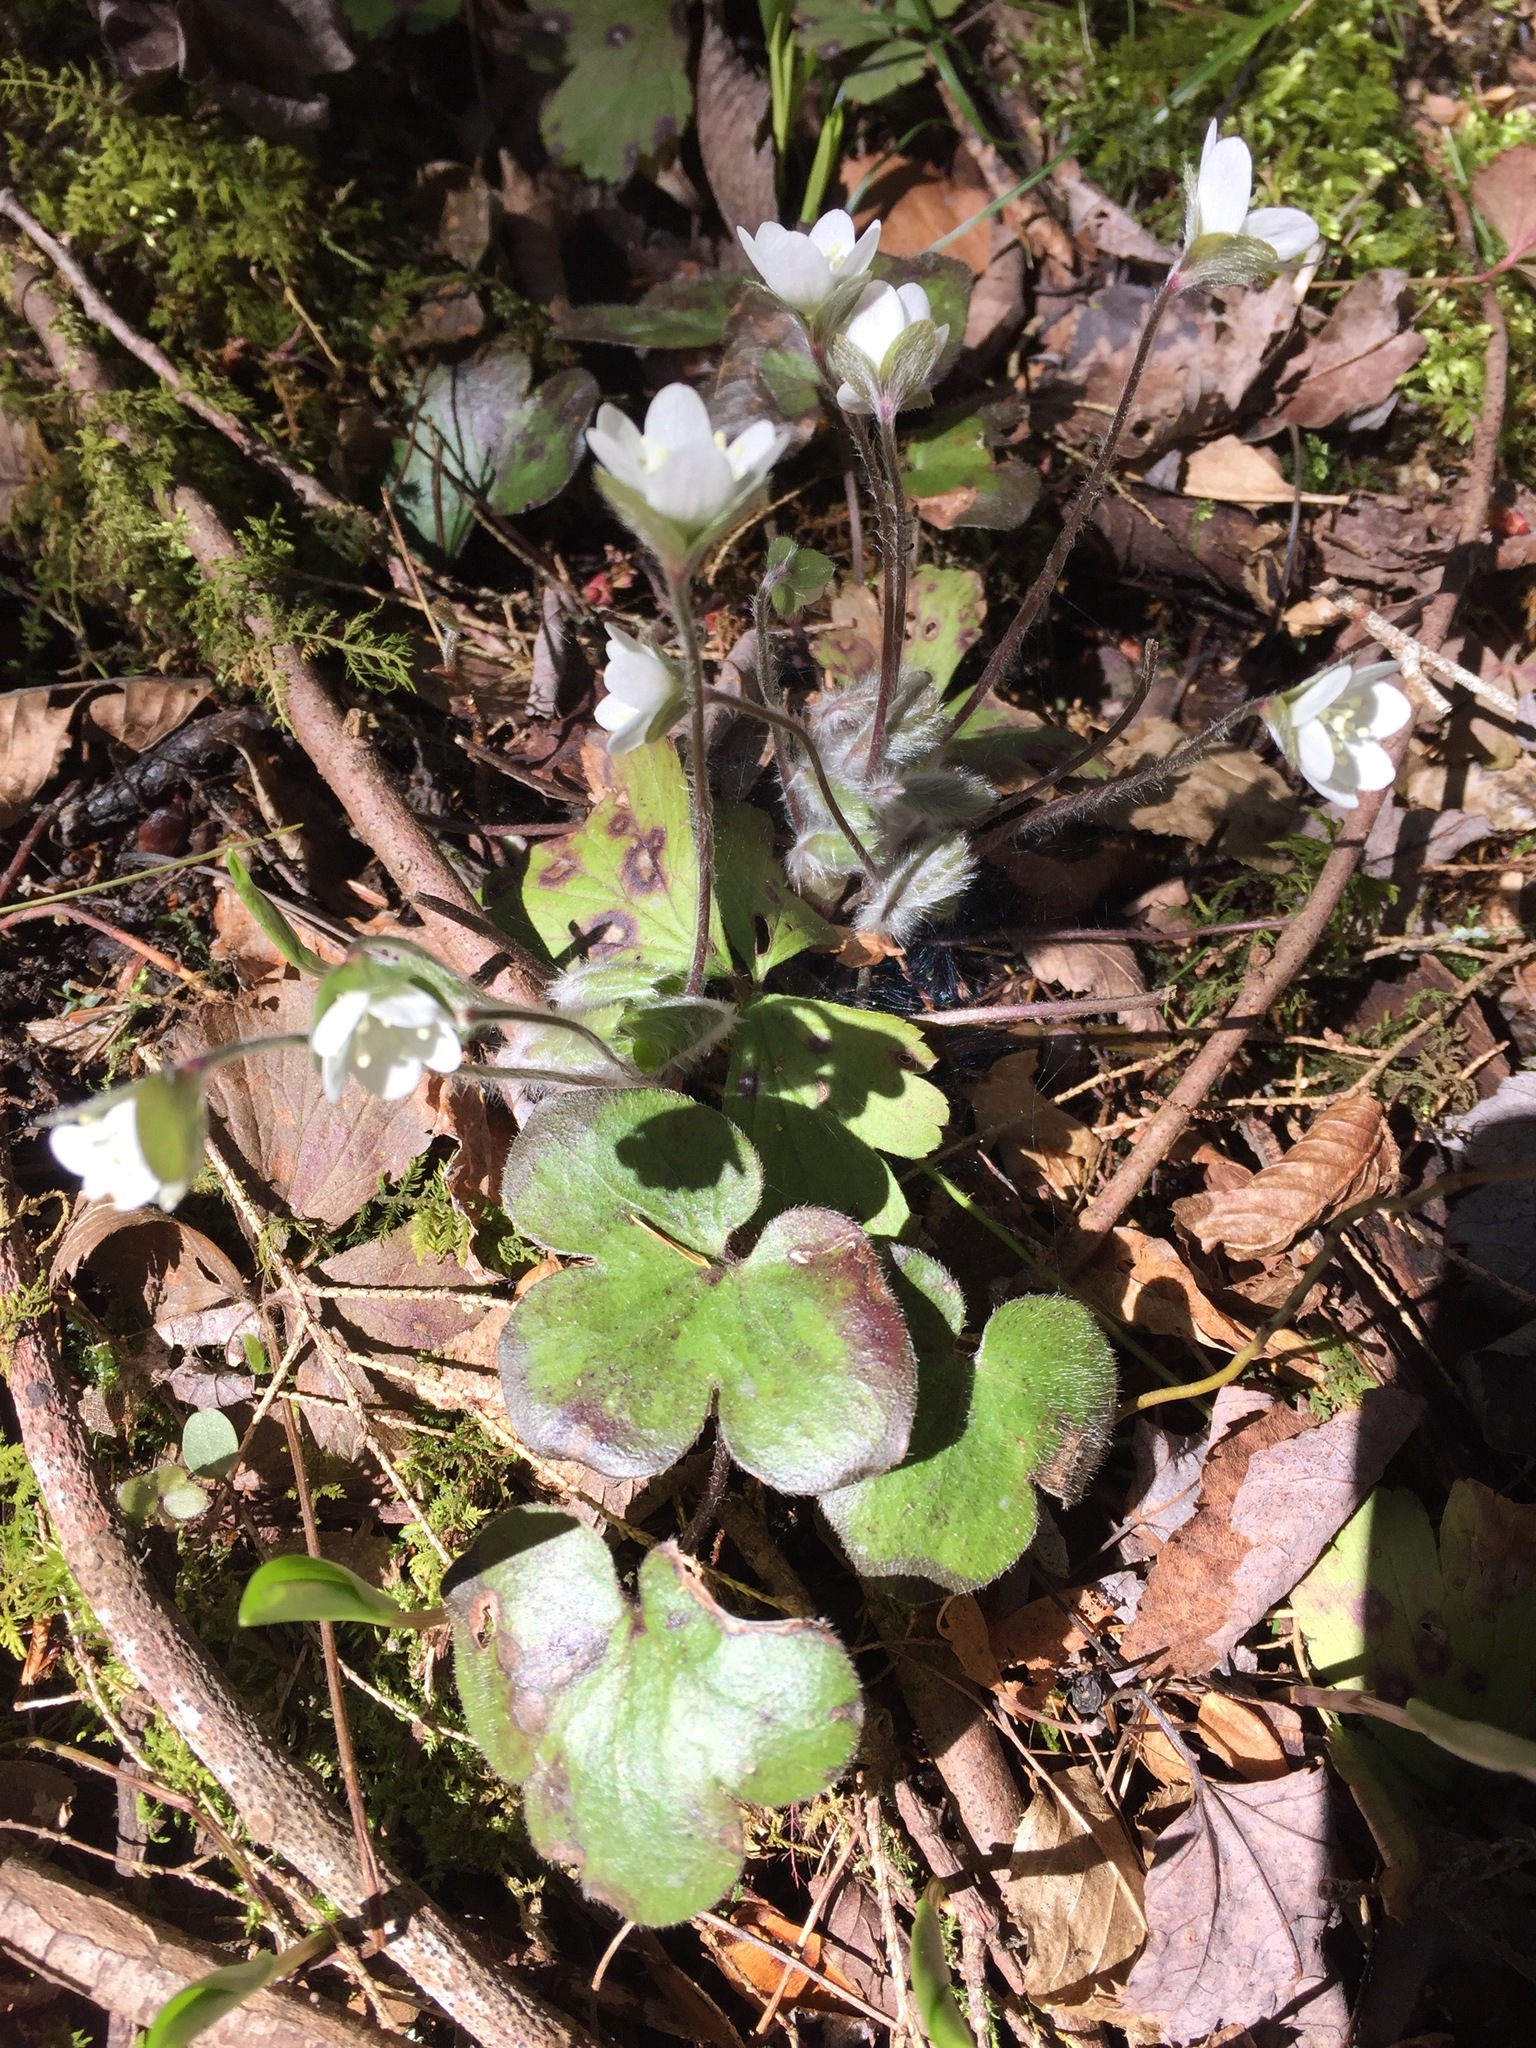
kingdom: Plantae
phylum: Tracheophyta
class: Magnoliopsida
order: Ranunculales
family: Ranunculaceae
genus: Hepatica
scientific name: Hepatica americana
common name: American hepatica
